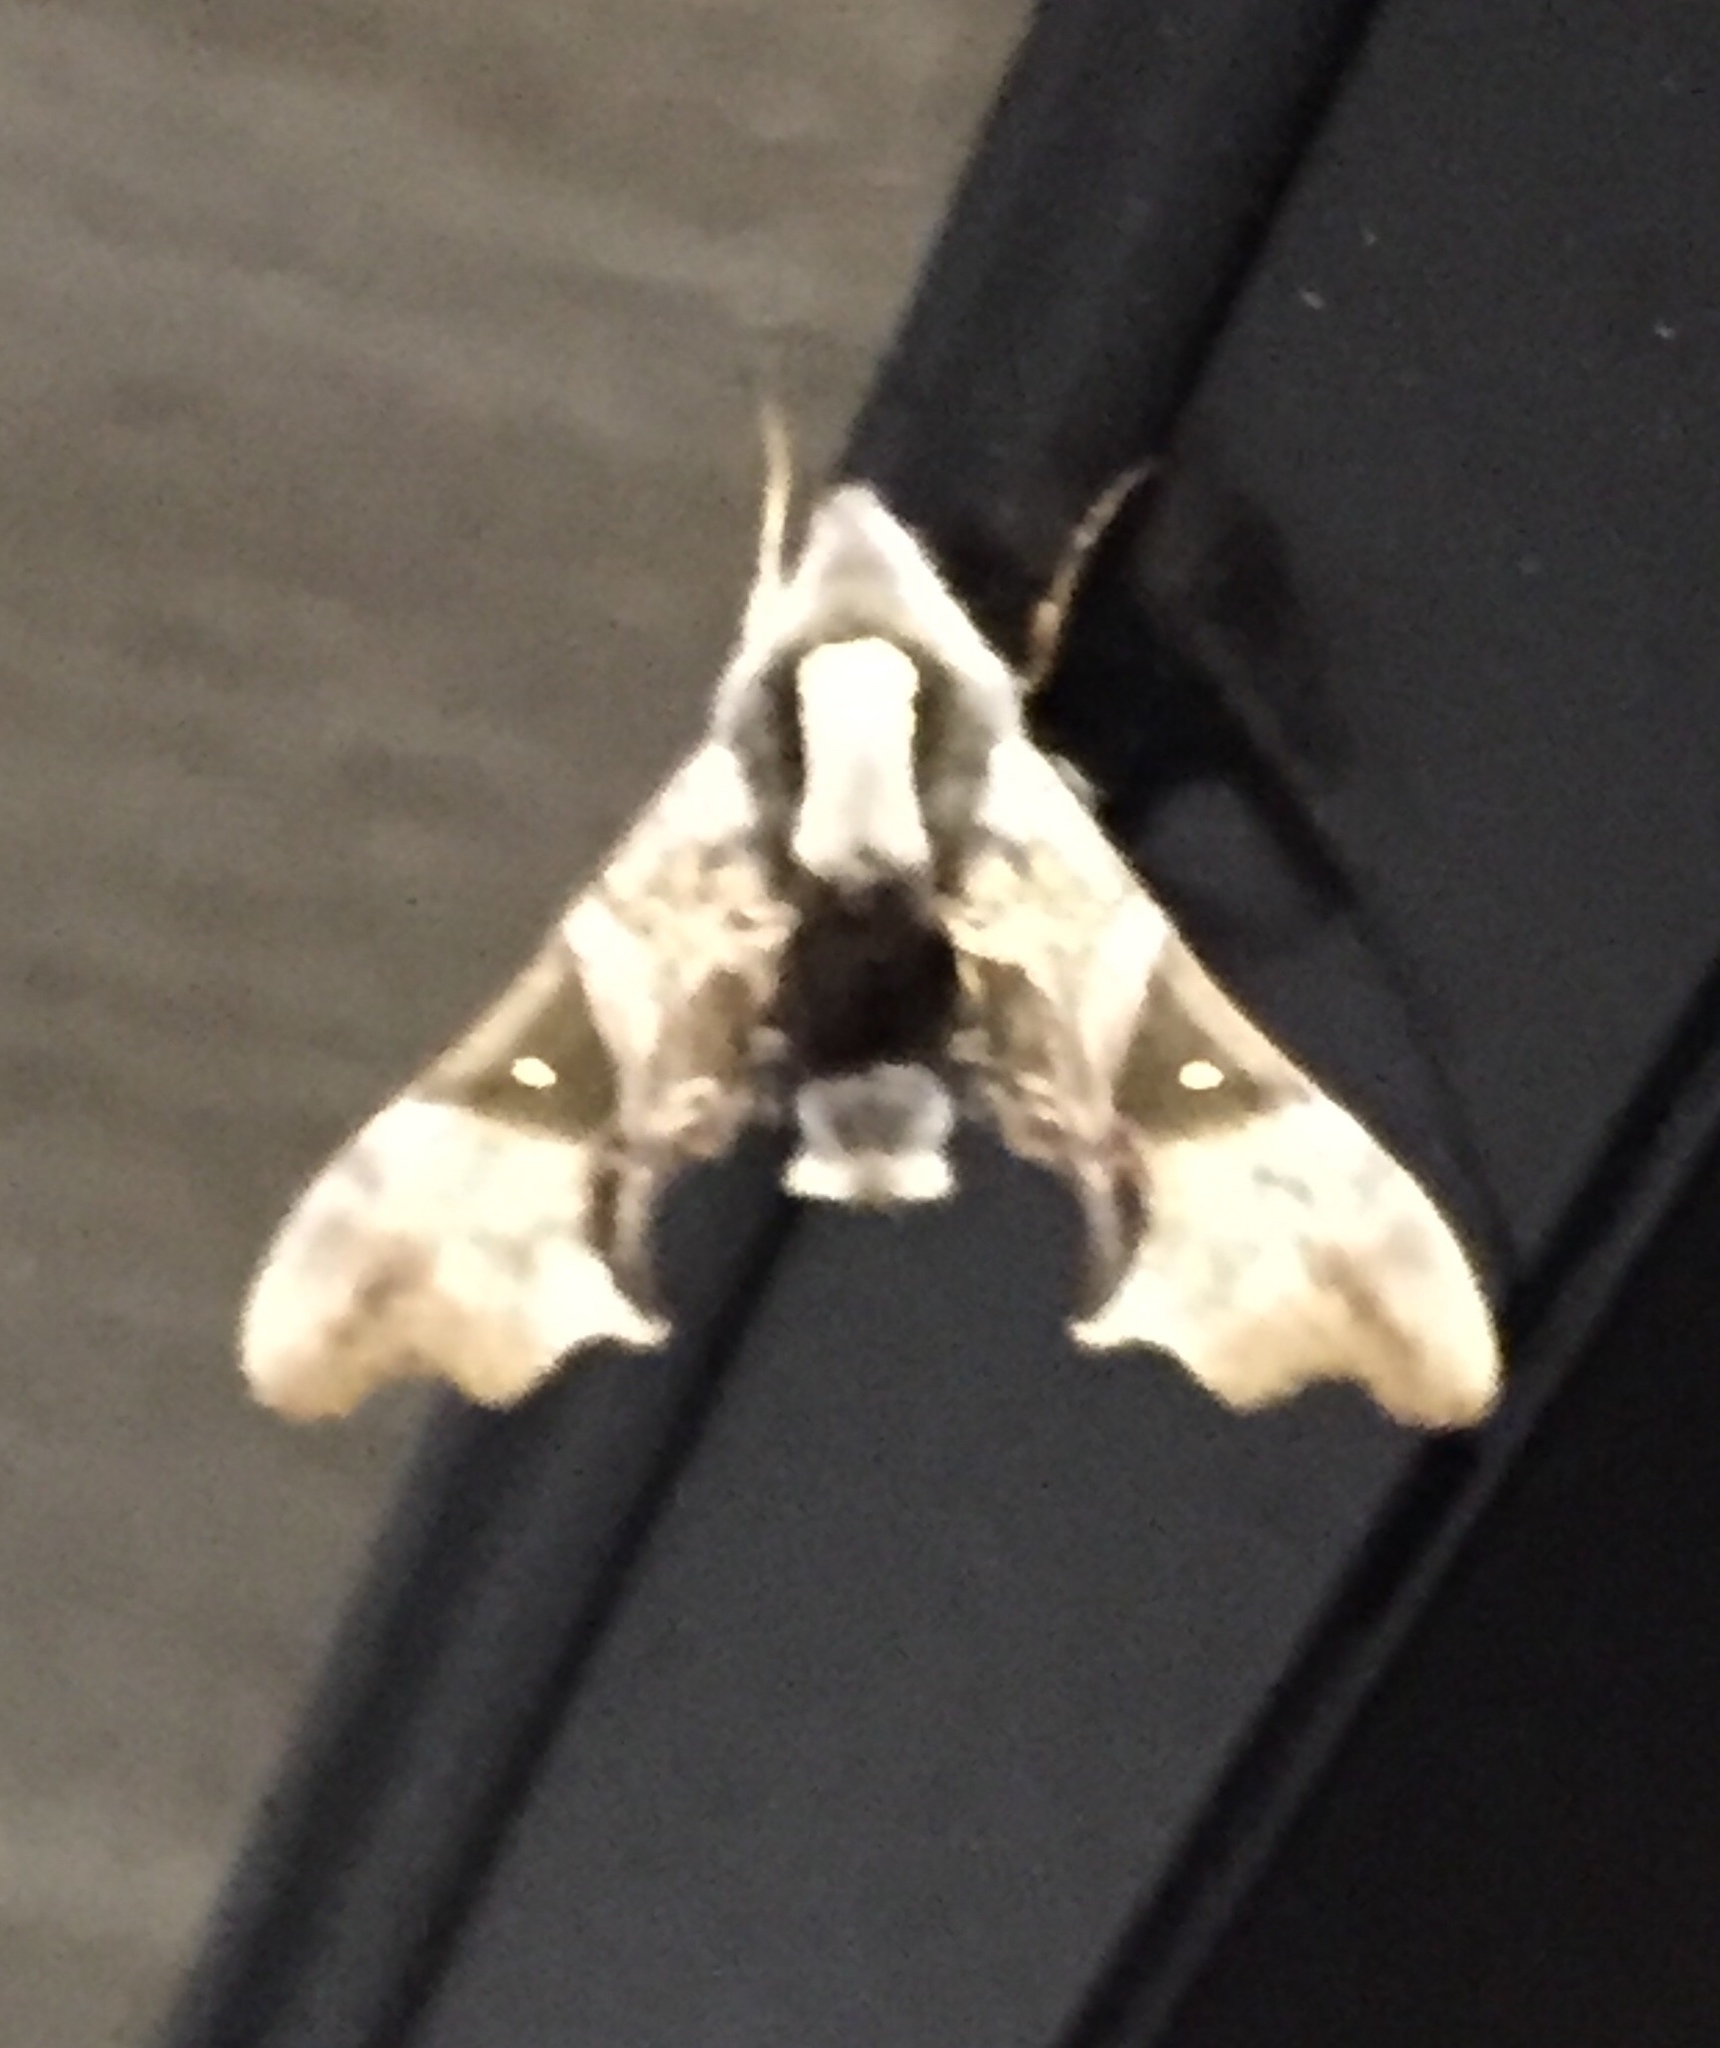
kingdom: Animalia
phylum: Arthropoda
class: Insecta
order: Lepidoptera
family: Sphingidae
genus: Odontosida
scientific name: Odontosida magnificum
